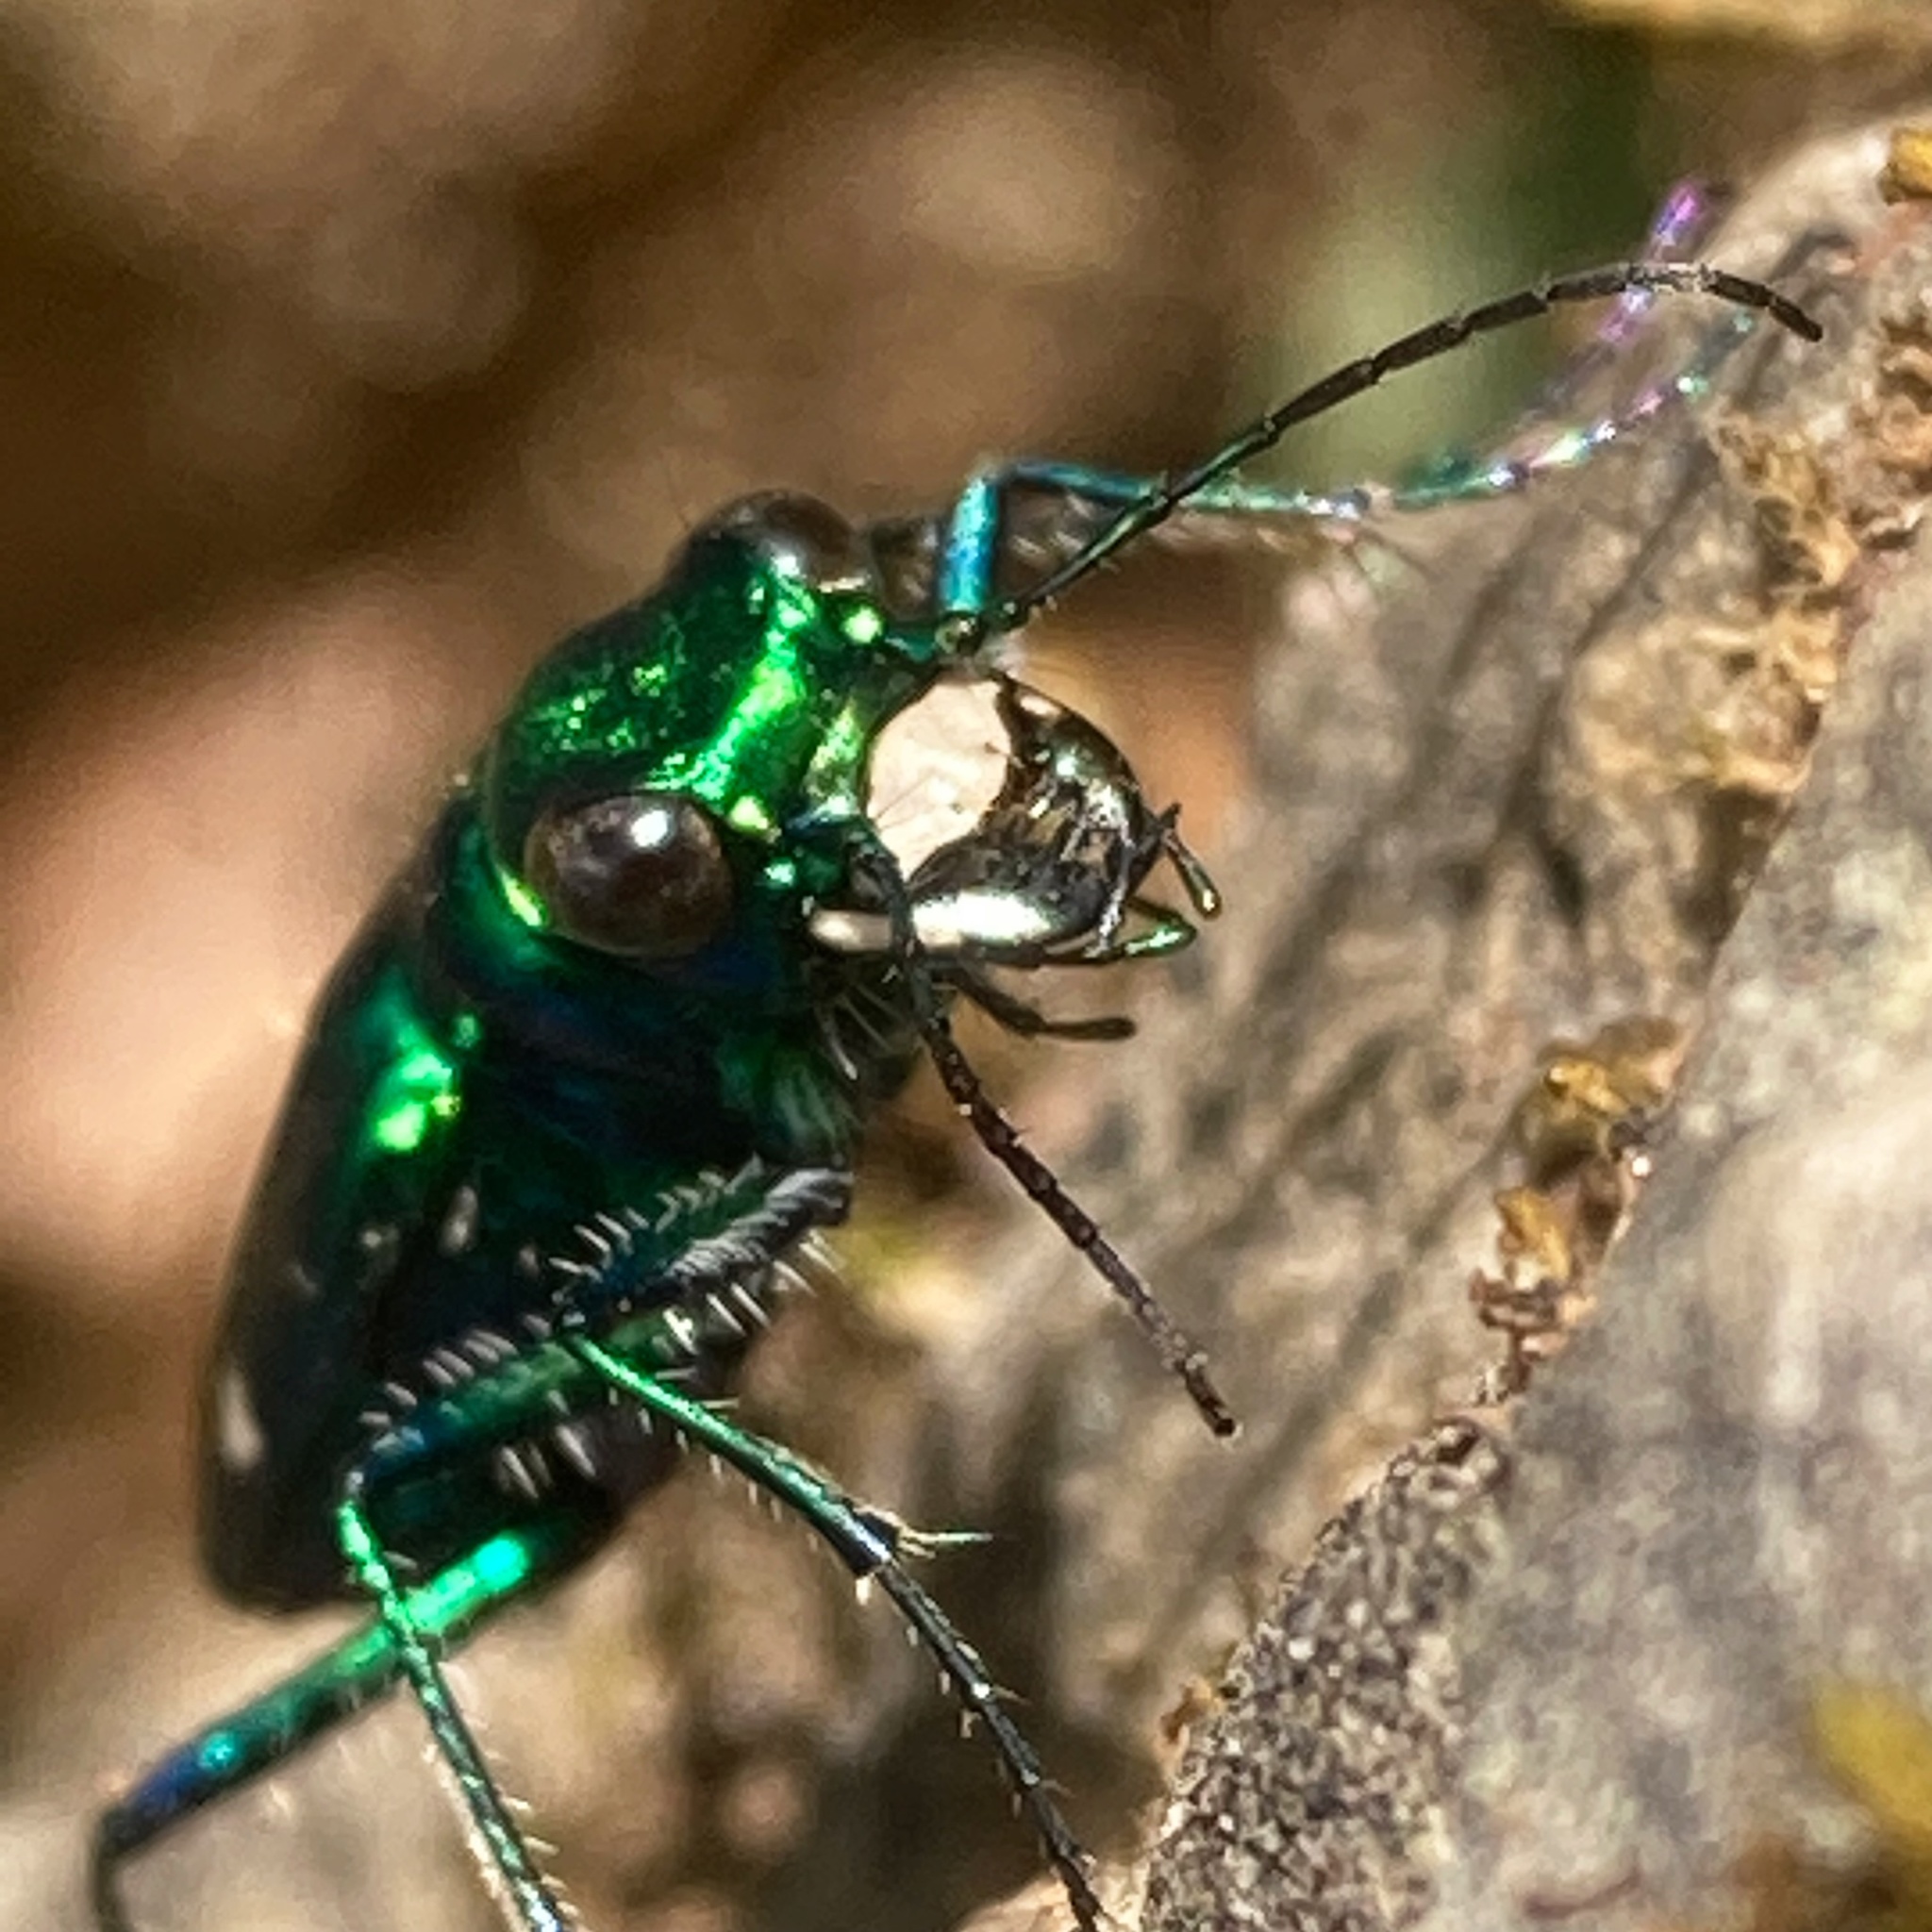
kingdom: Animalia
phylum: Arthropoda
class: Insecta
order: Coleoptera
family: Carabidae
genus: Cicindela
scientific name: Cicindela sexguttata
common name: Six-spotted tiger beetle
